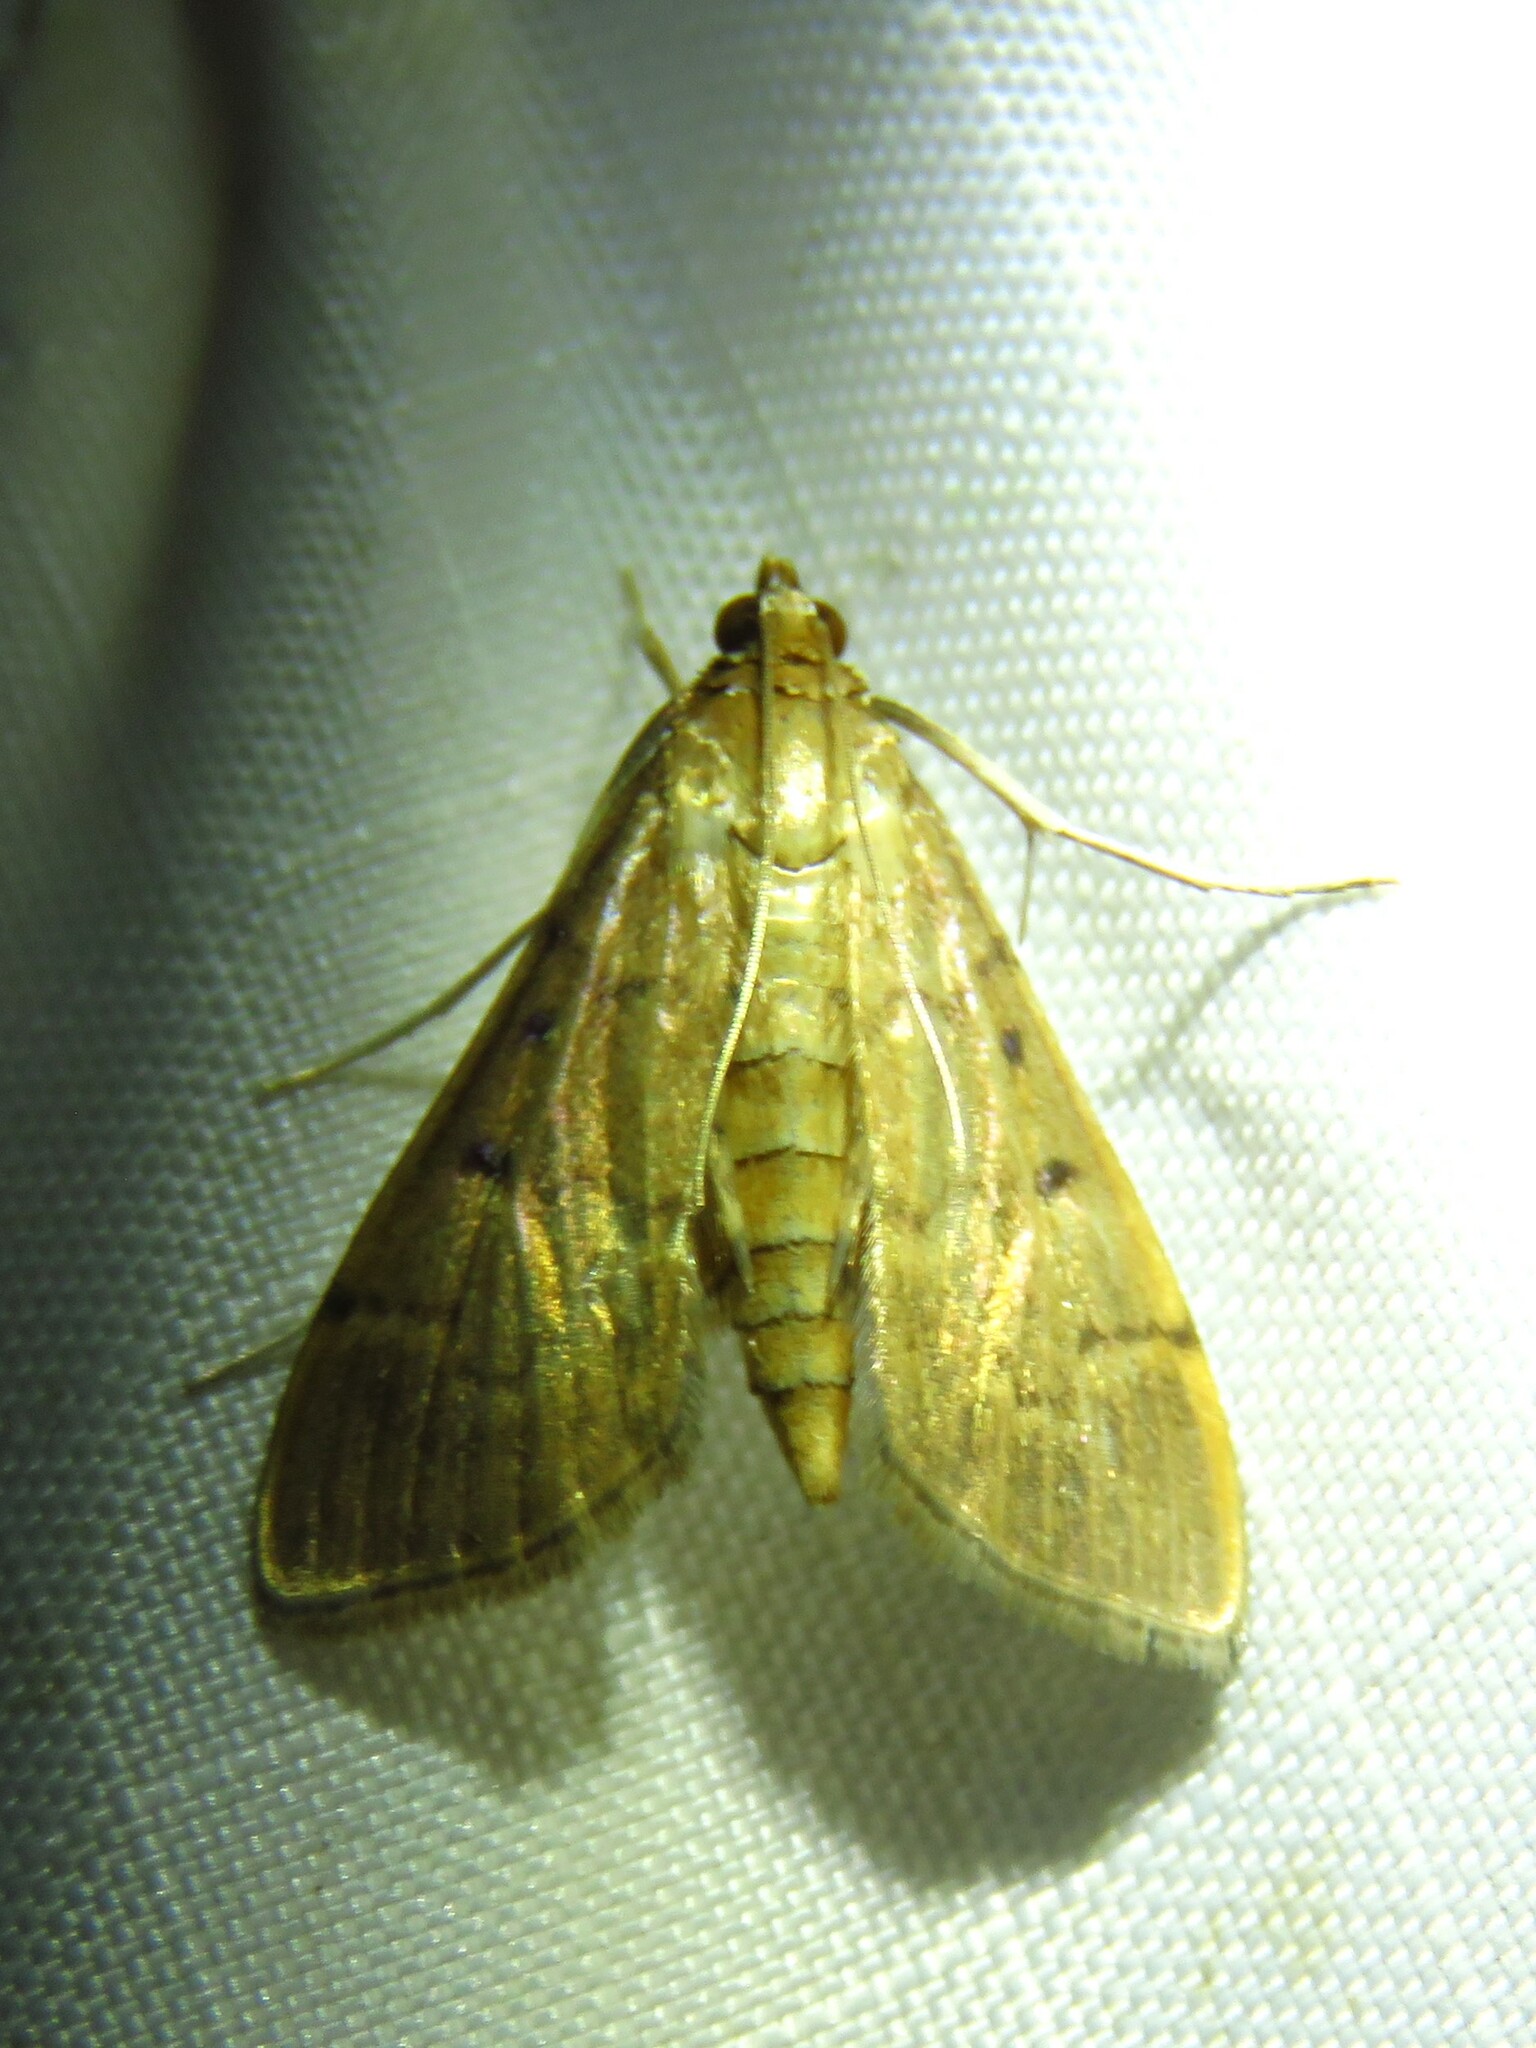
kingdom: Animalia
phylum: Arthropoda
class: Insecta
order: Lepidoptera
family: Crambidae
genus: Herpetogramma
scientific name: Herpetogramma bipunctalis
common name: Southern beet webworm
